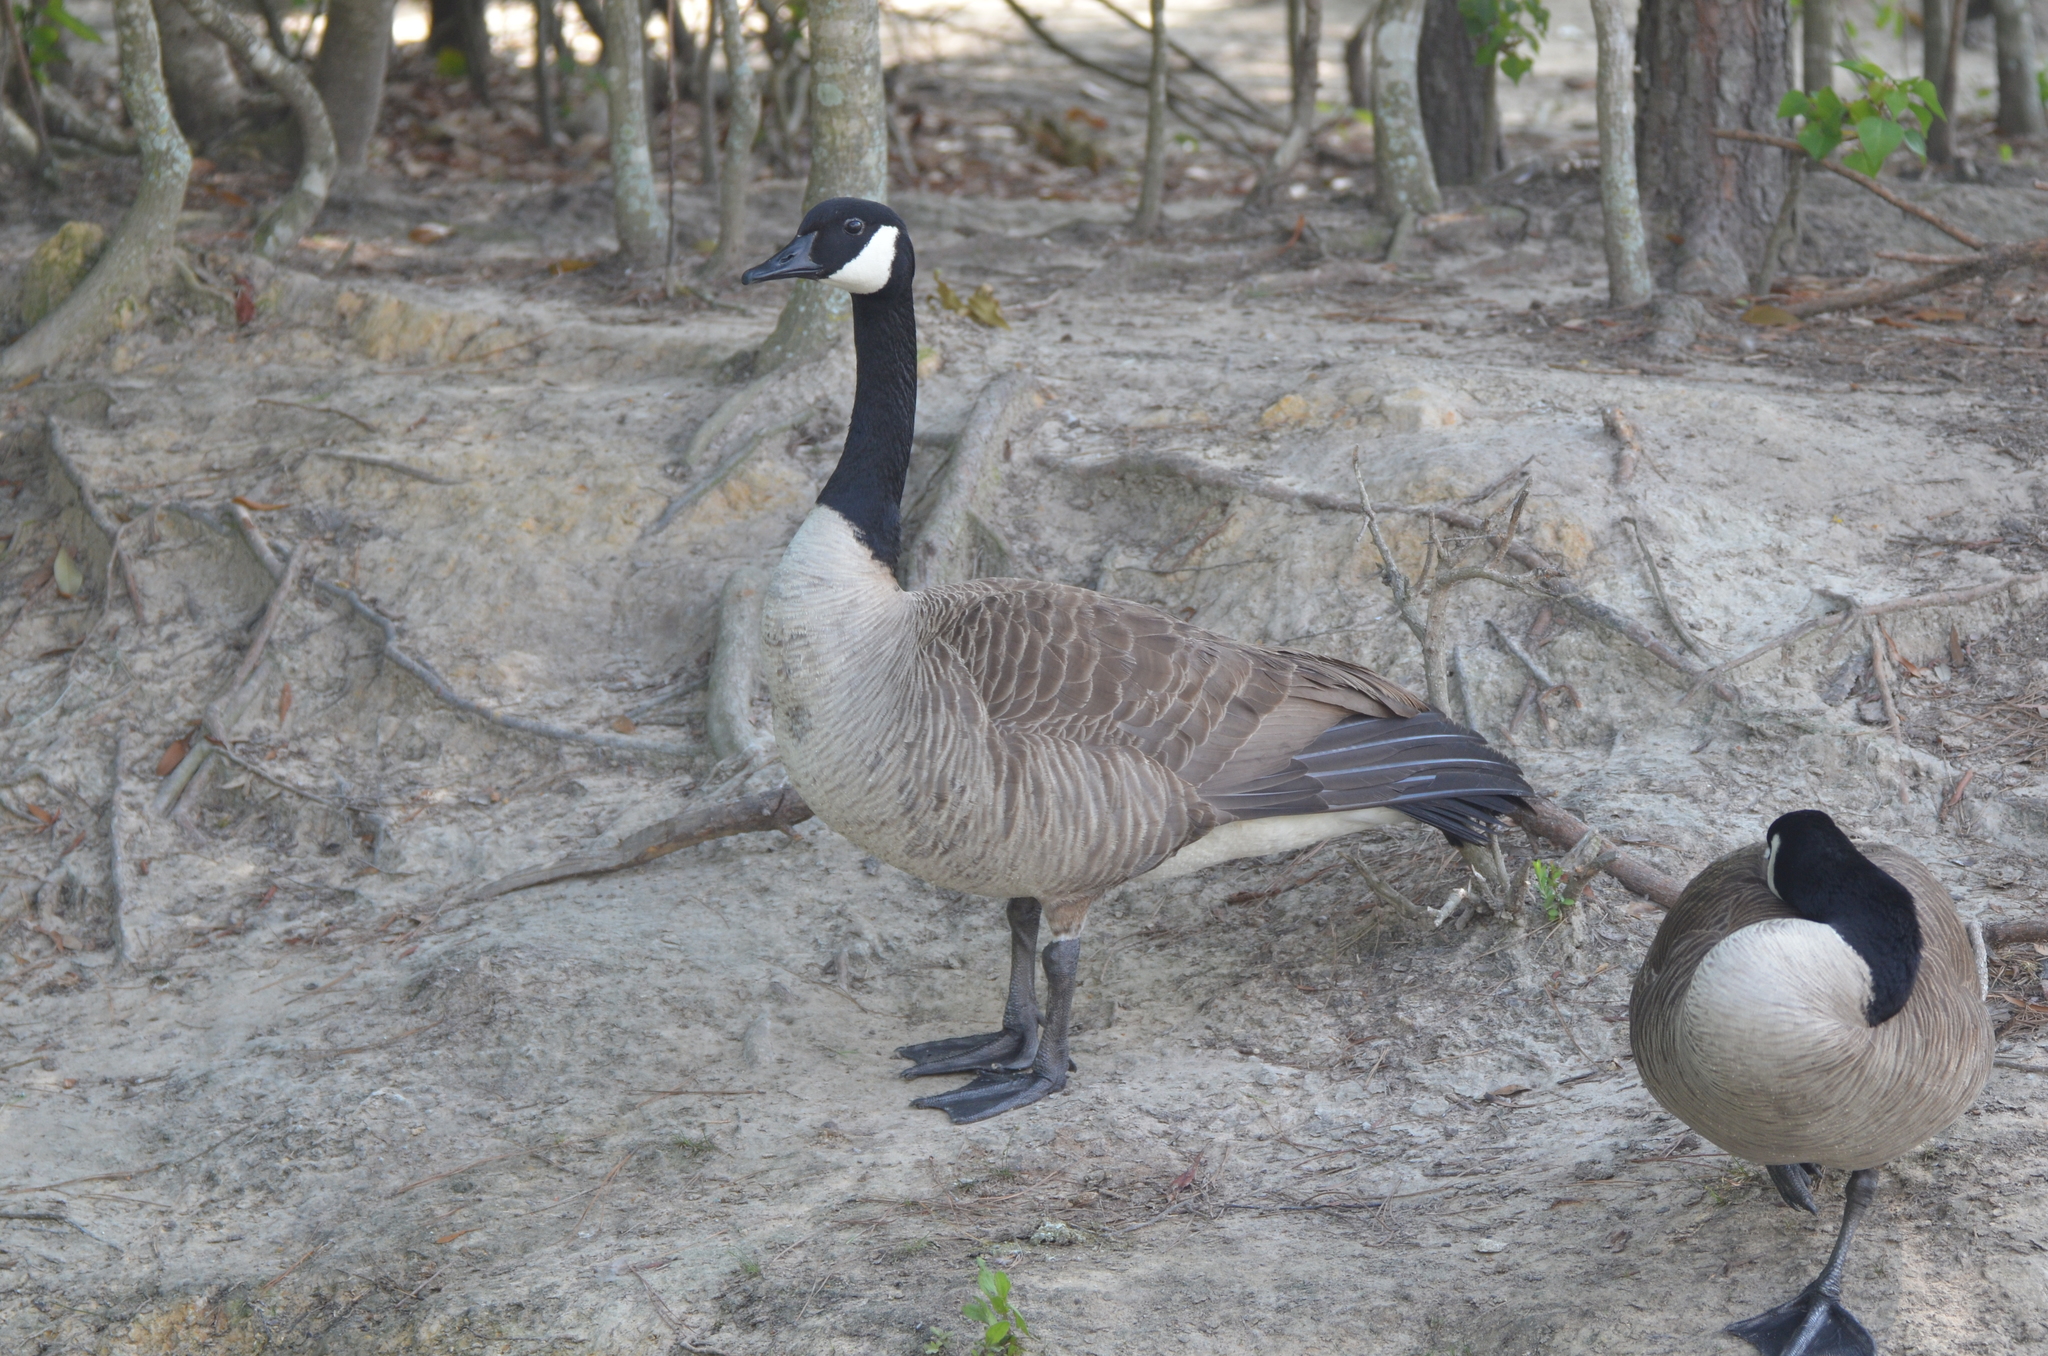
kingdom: Animalia
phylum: Chordata
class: Aves
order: Anseriformes
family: Anatidae
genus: Branta
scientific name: Branta canadensis
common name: Canada goose
